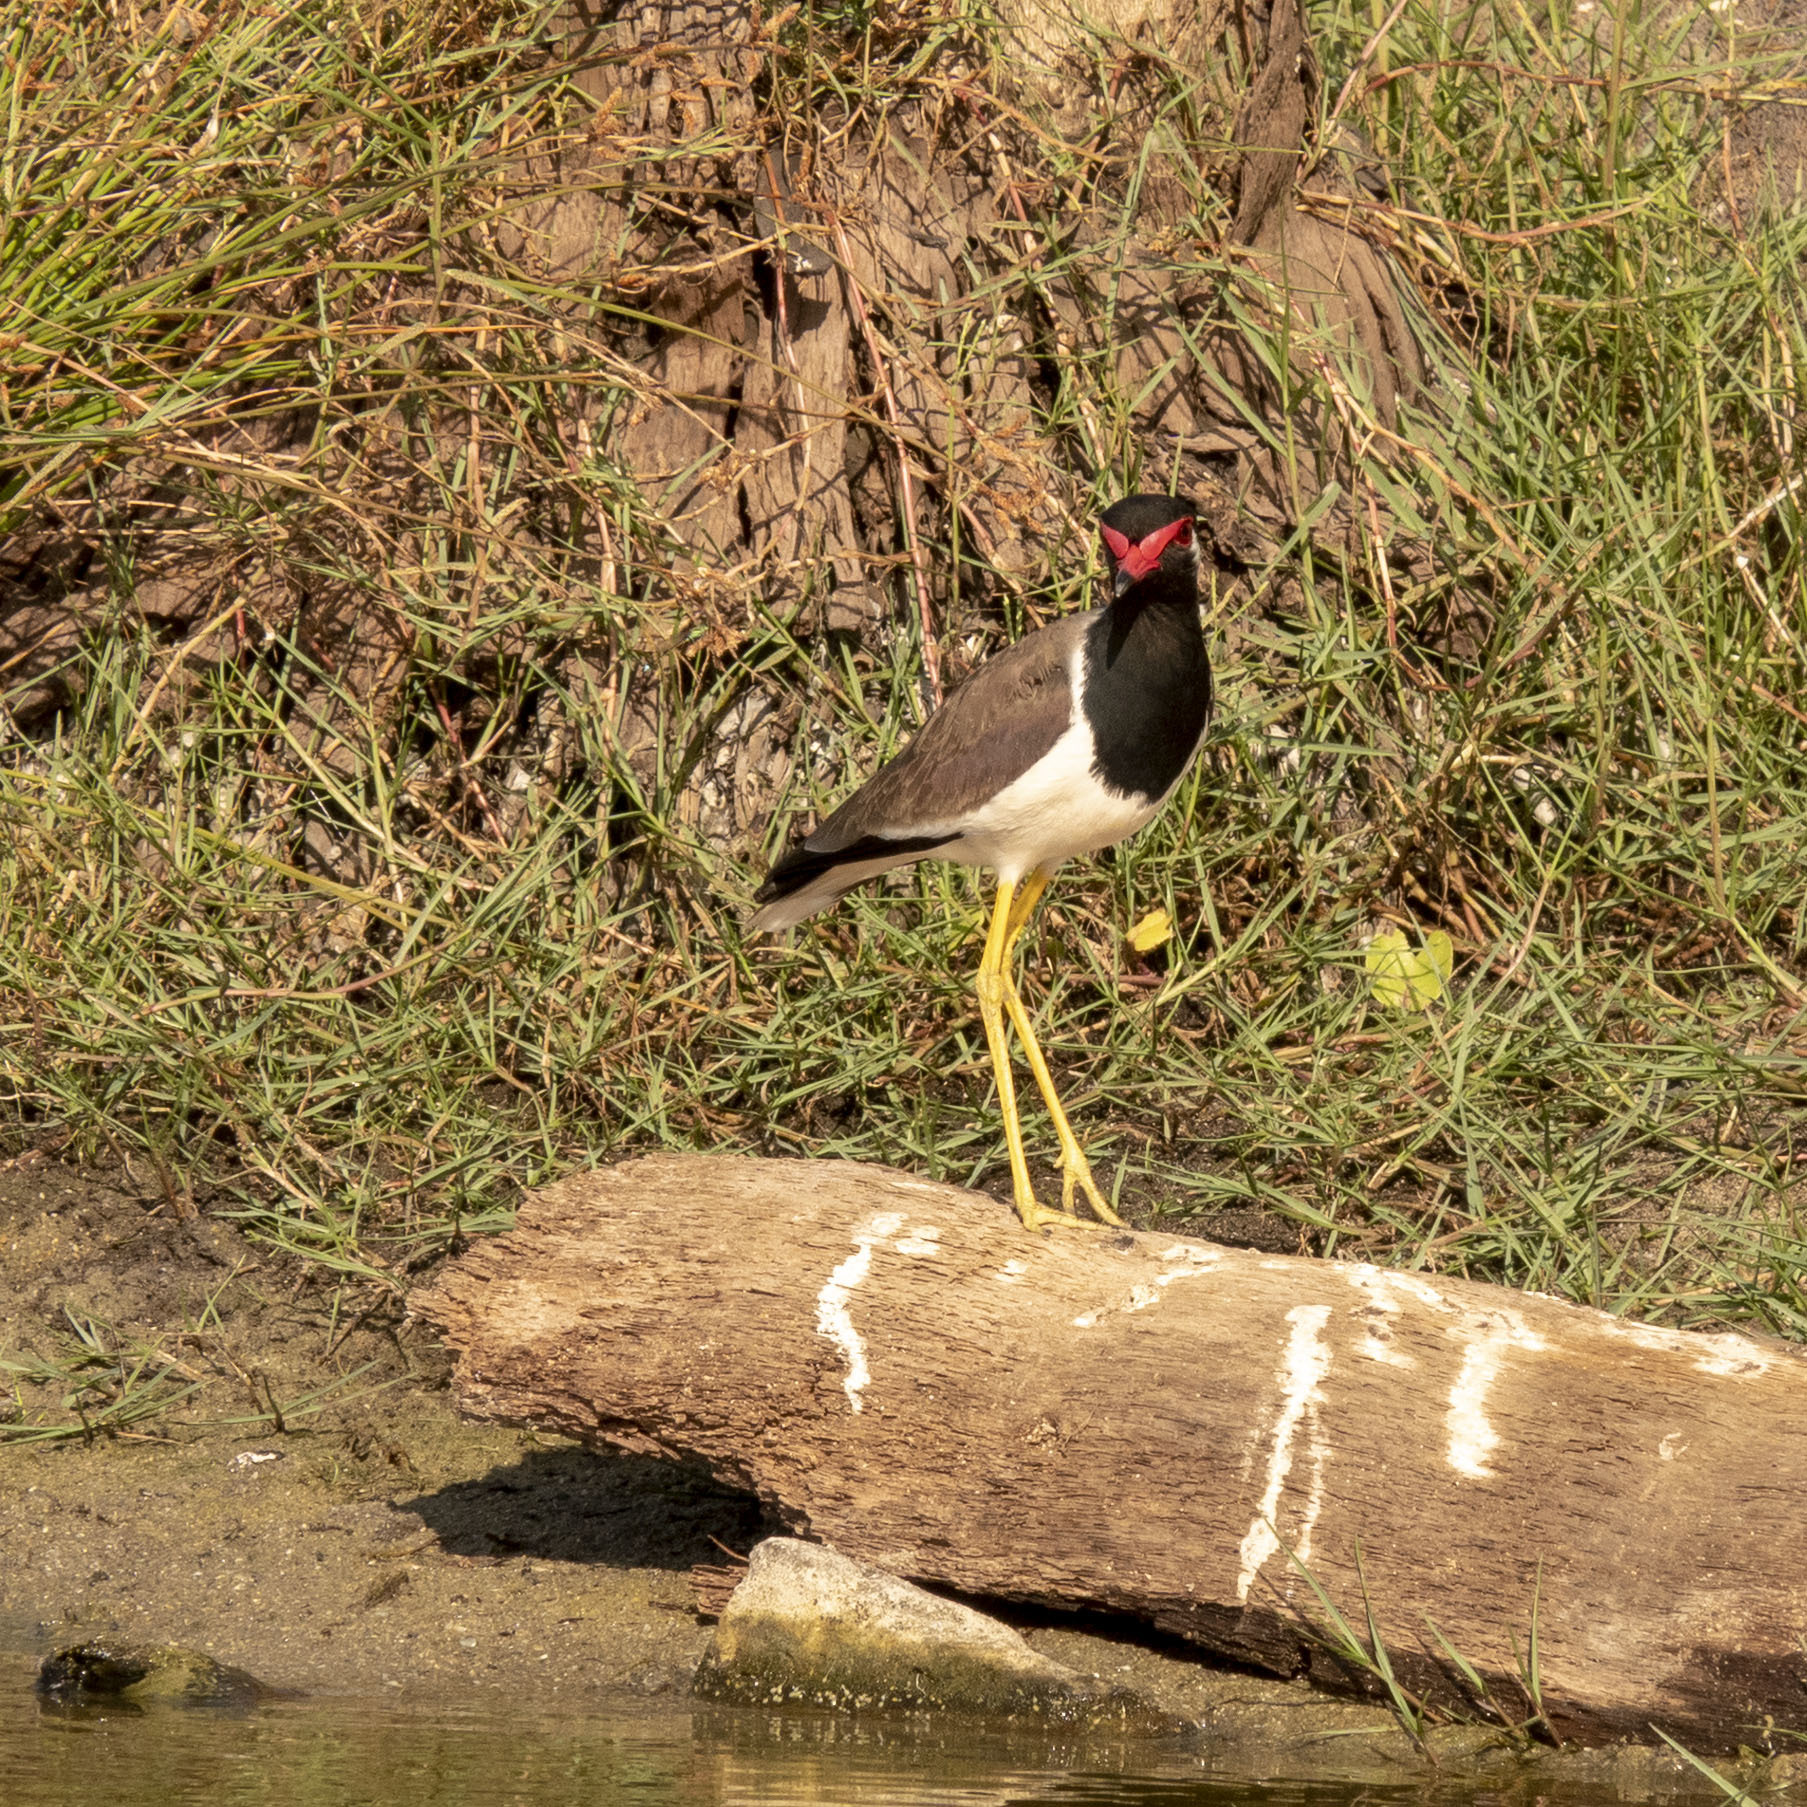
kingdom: Animalia
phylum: Chordata
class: Aves
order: Charadriiformes
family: Charadriidae
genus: Vanellus
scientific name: Vanellus indicus
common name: Red-wattled lapwing
